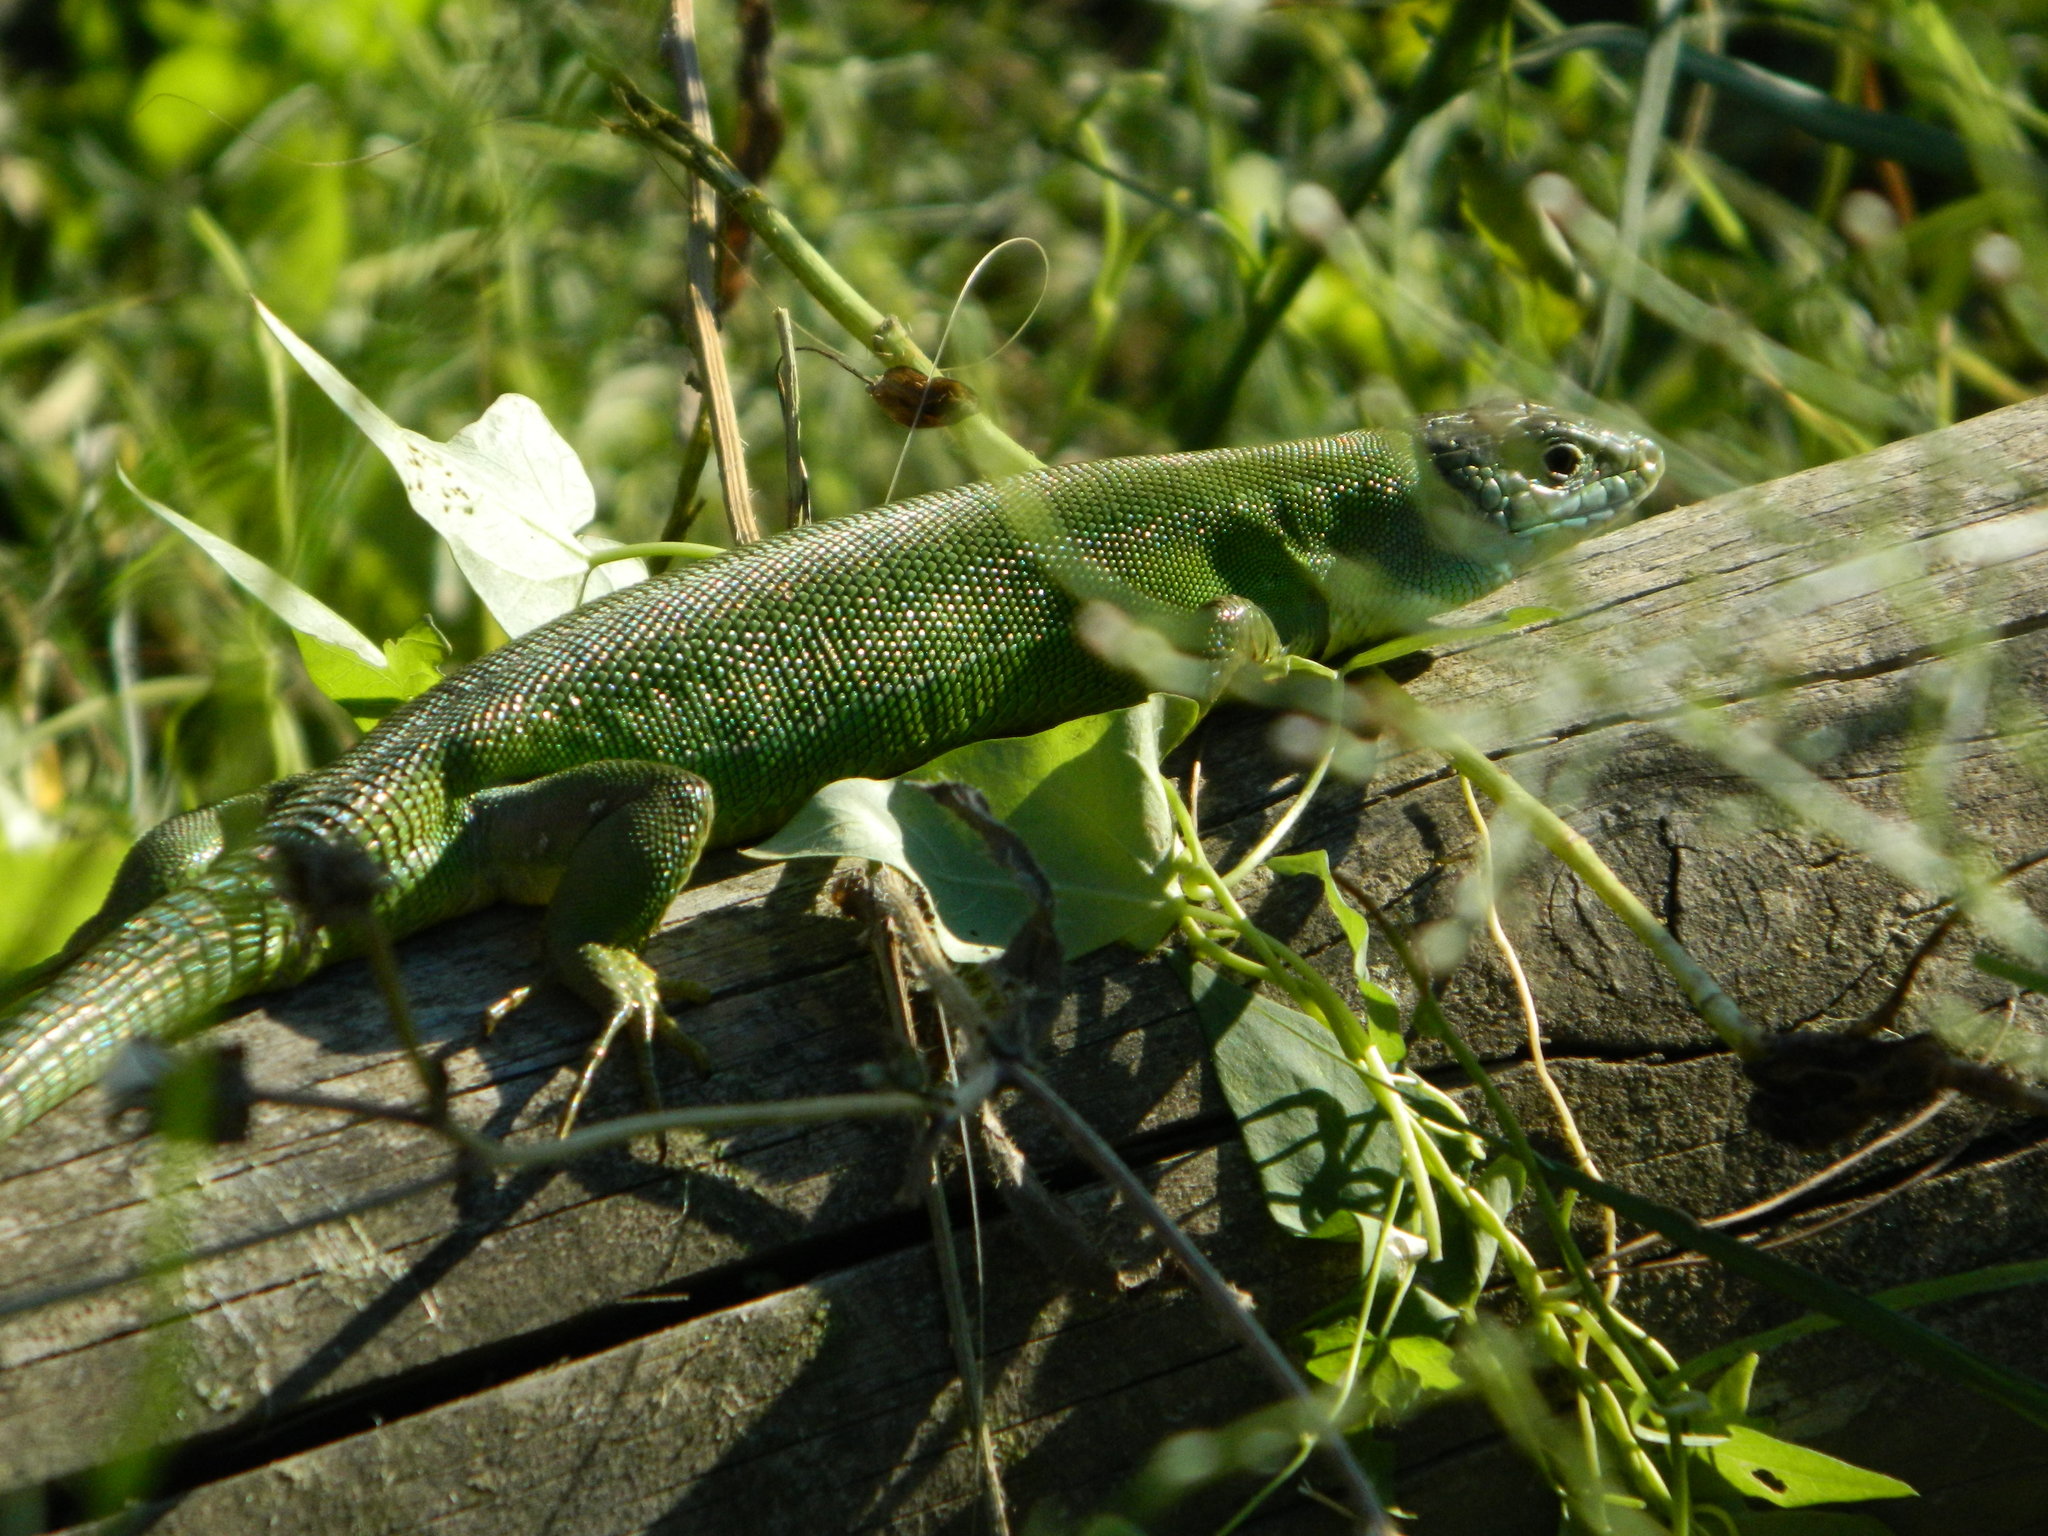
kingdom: Animalia
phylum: Chordata
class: Squamata
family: Lacertidae
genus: Lacerta
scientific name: Lacerta bilineata
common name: Western green lizard
